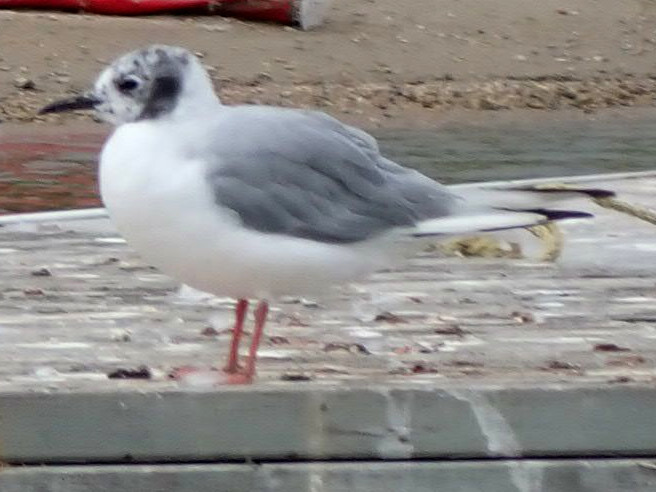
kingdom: Animalia
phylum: Chordata
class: Aves
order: Charadriiformes
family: Laridae
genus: Chroicocephalus
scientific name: Chroicocephalus philadelphia
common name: Bonaparte's gull
